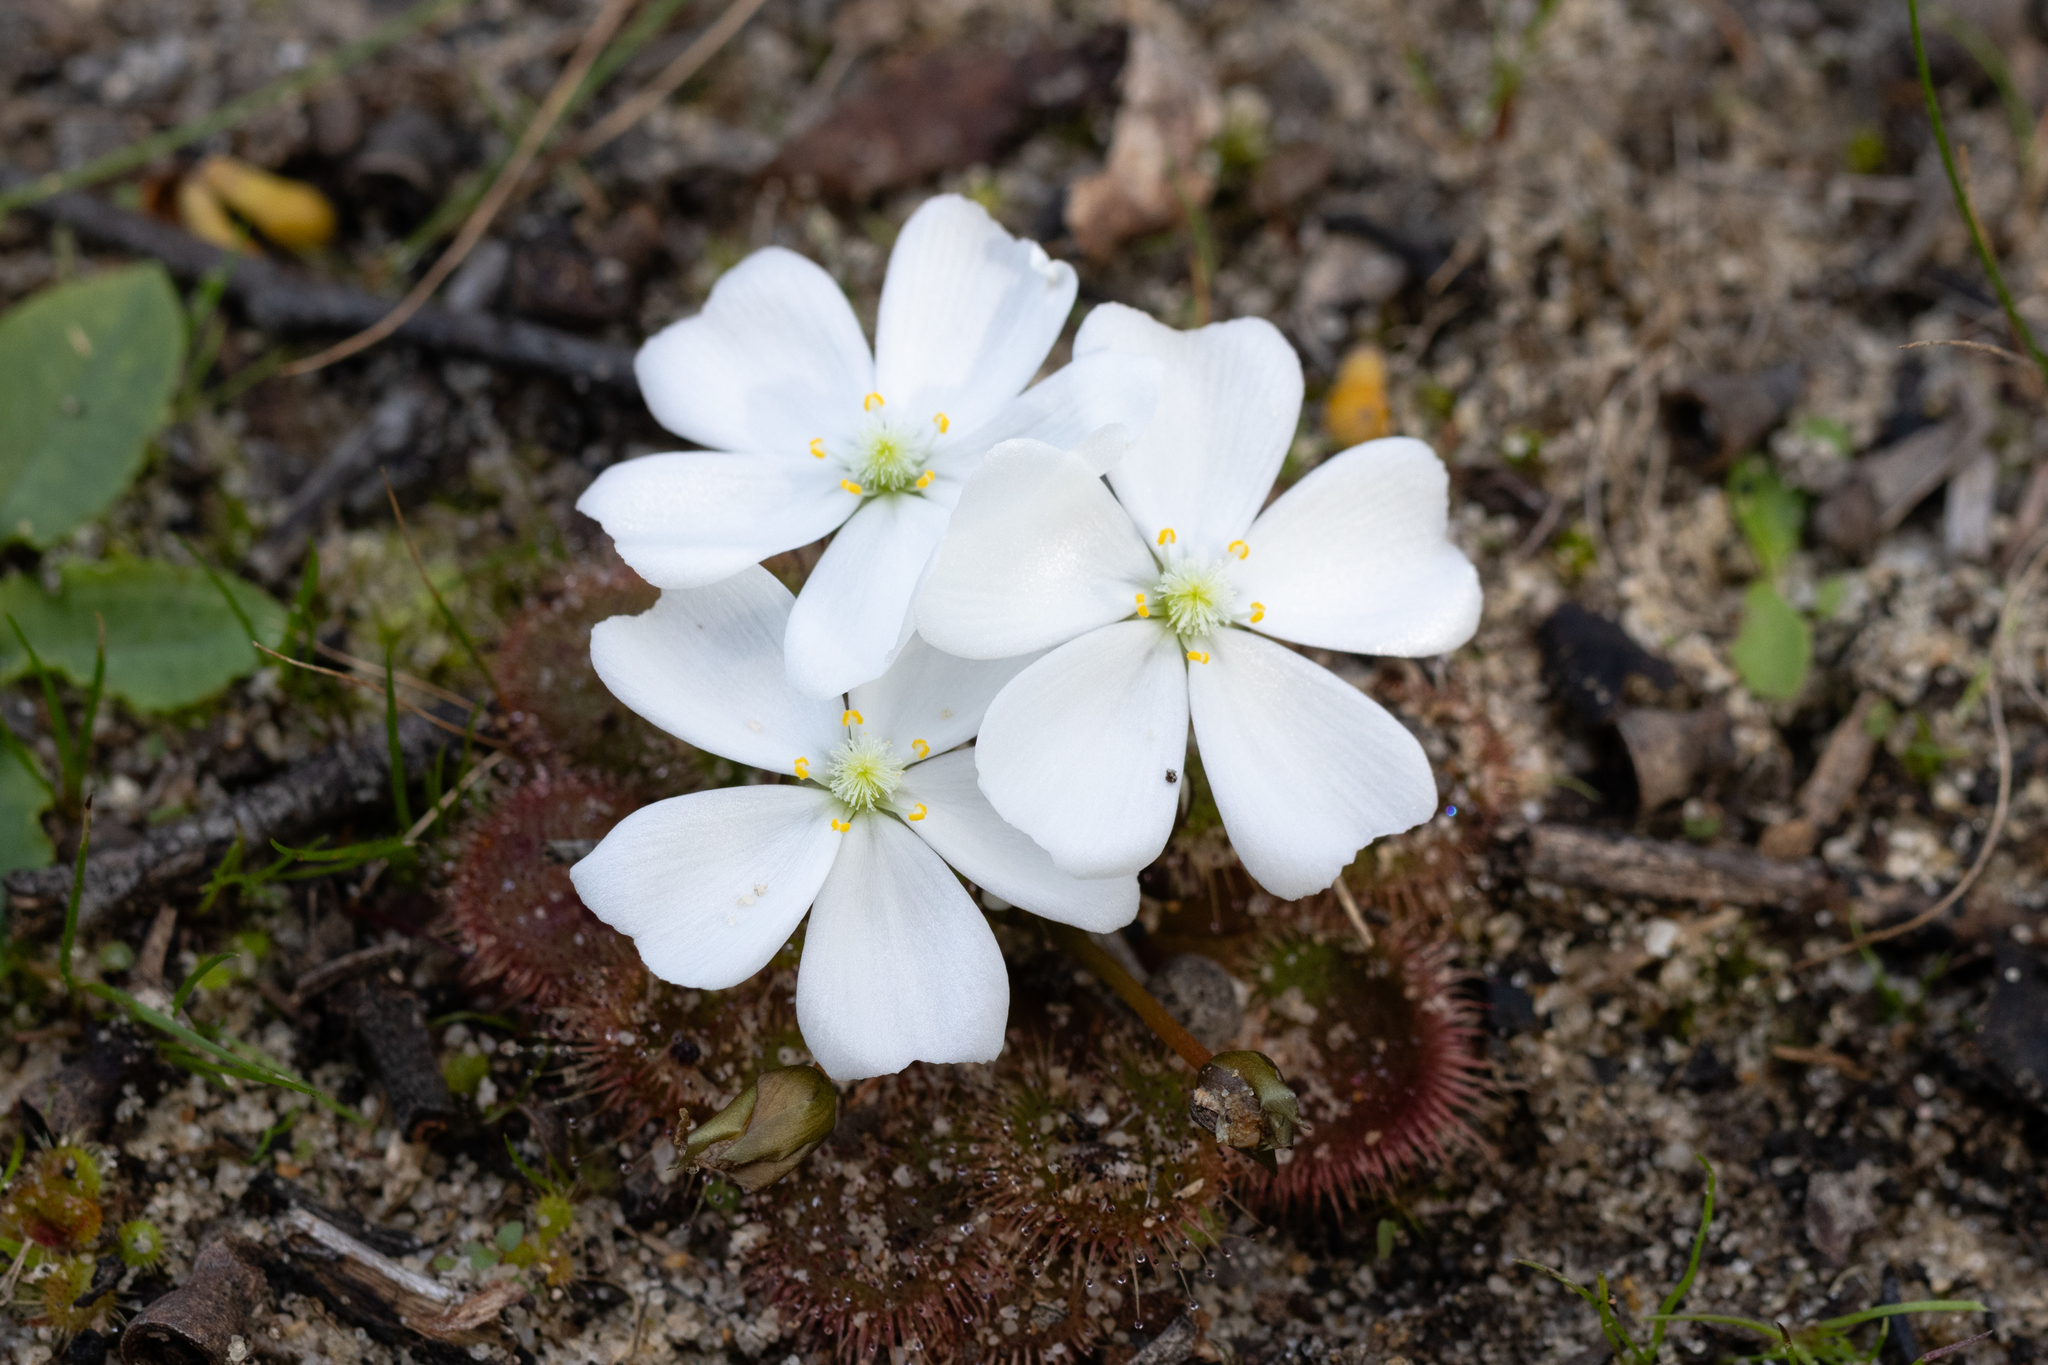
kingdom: Plantae
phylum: Tracheophyta
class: Magnoliopsida
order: Caryophyllales
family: Droseraceae
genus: Drosera
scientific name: Drosera whittakeri
